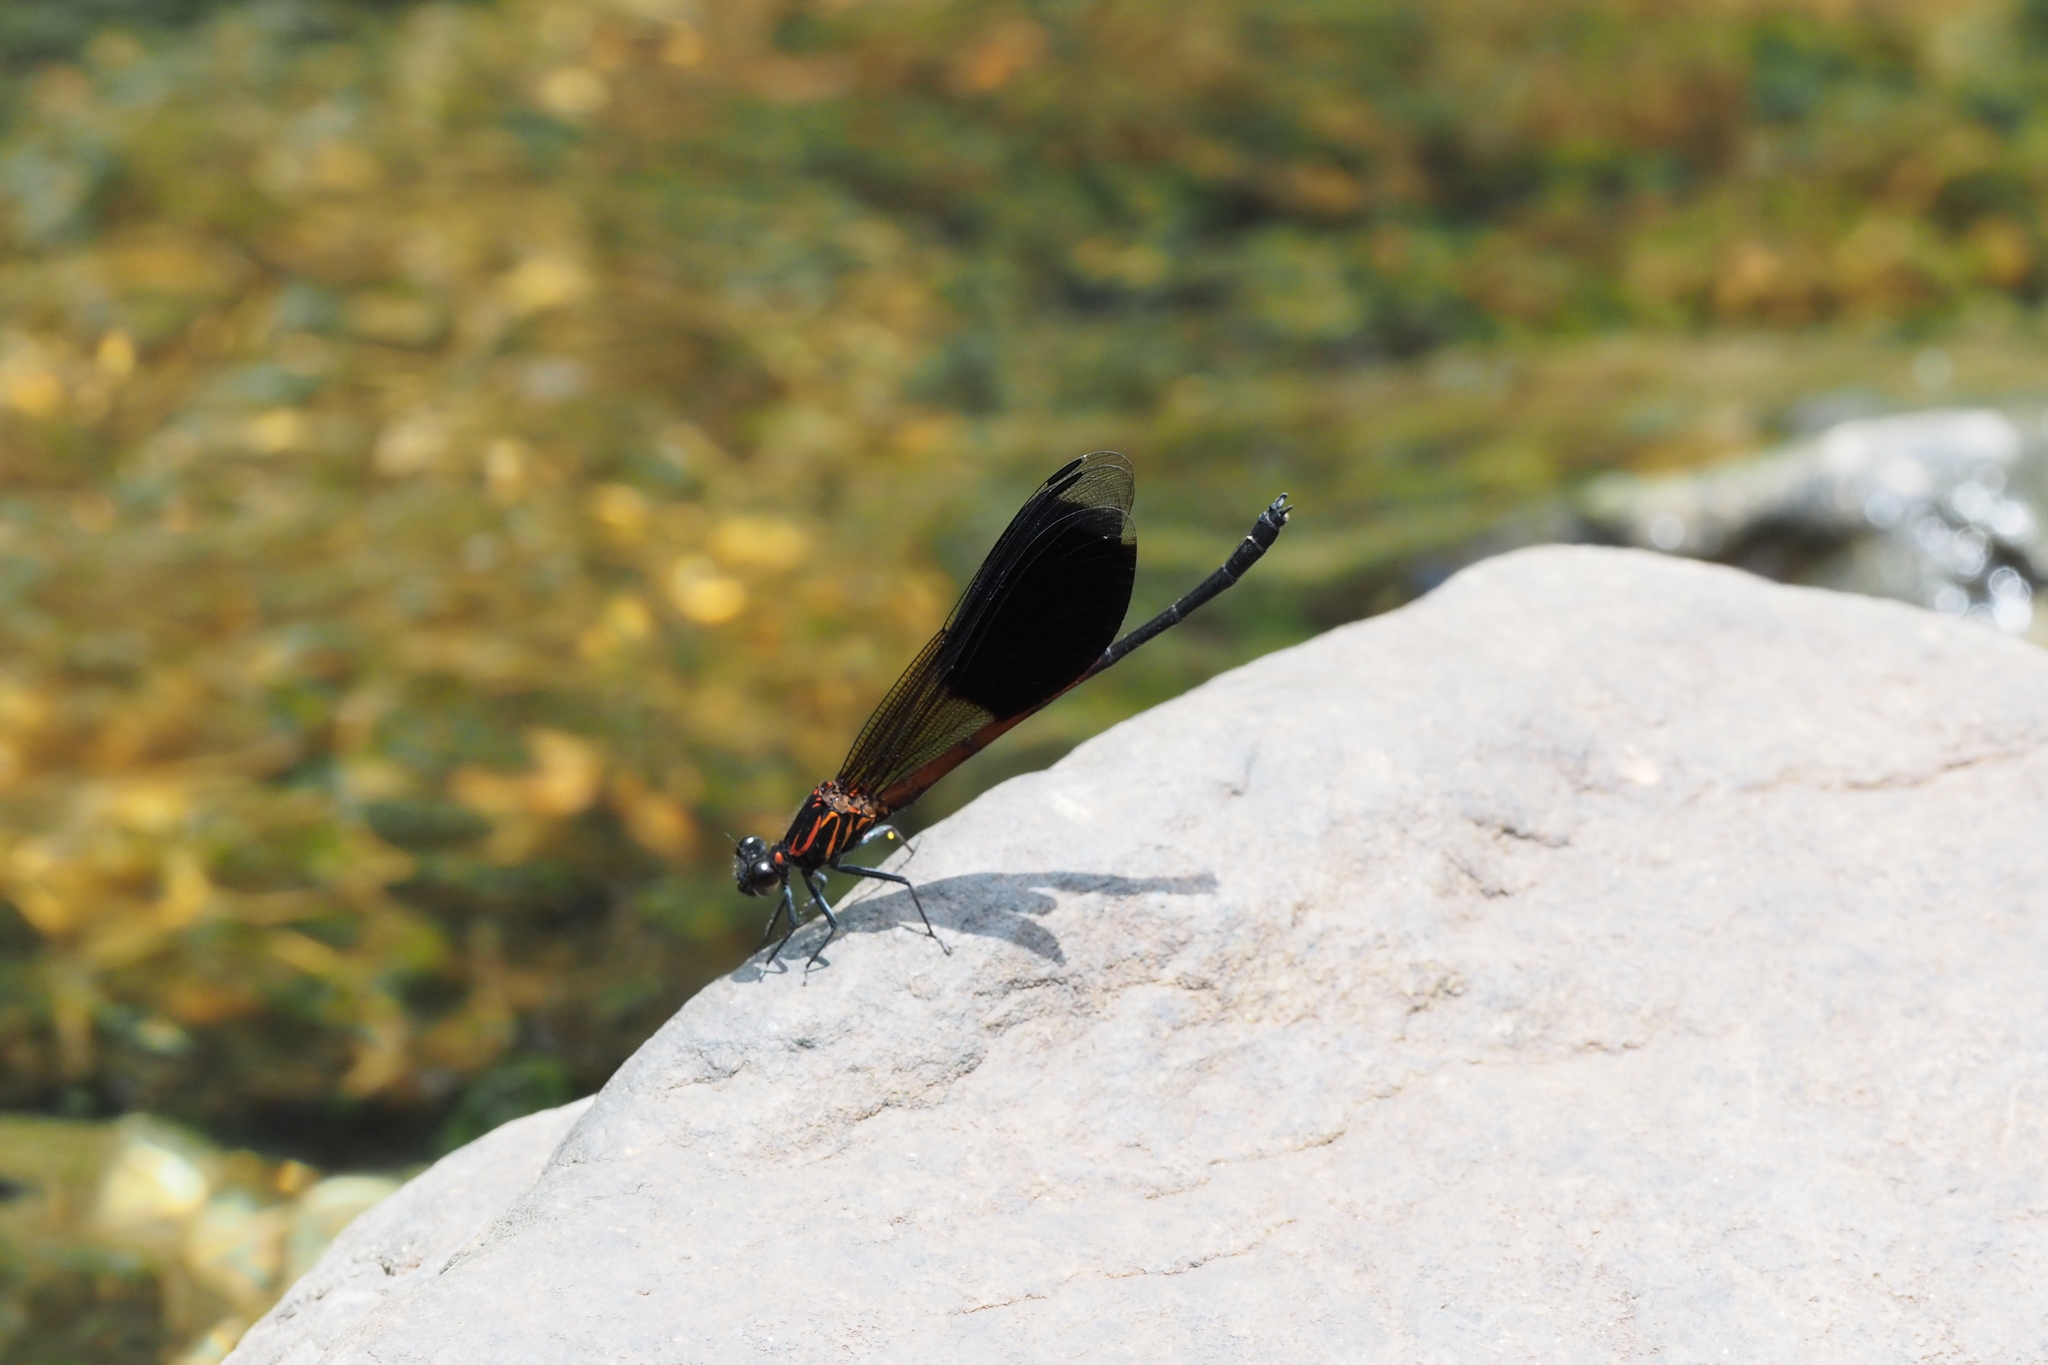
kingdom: Animalia
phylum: Arthropoda
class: Insecta
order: Odonata
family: Euphaeidae
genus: Euphaea
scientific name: Euphaea formosa
